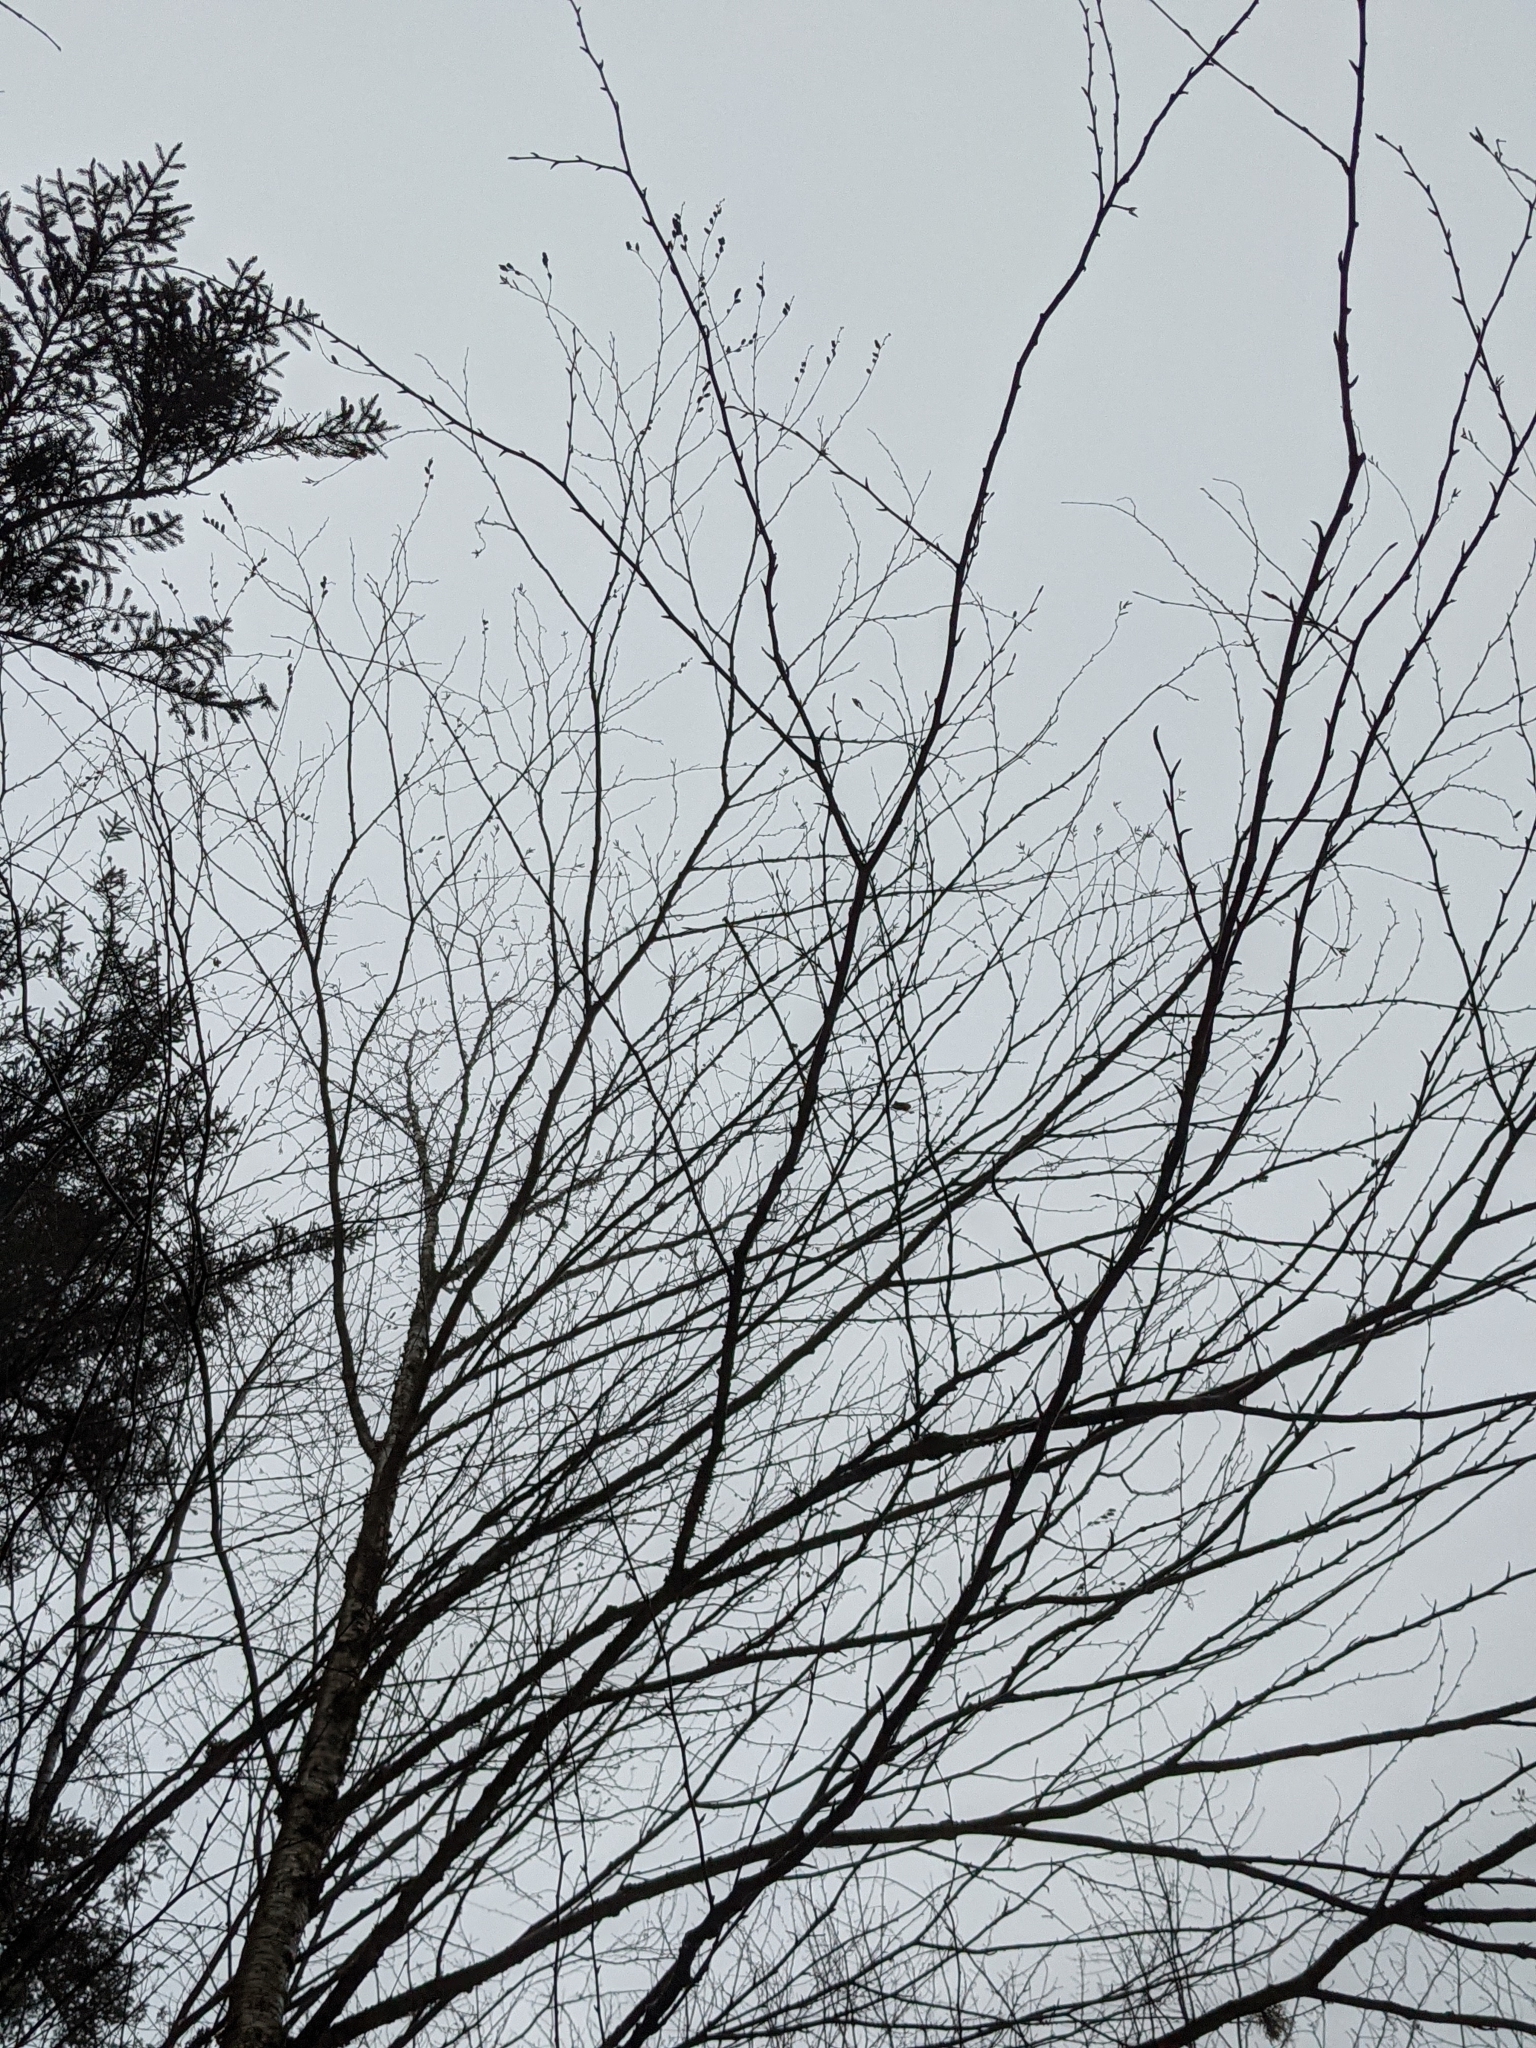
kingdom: Plantae
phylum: Tracheophyta
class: Magnoliopsida
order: Fagales
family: Betulaceae
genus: Betula
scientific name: Betula alleghaniensis
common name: Yellow birch
